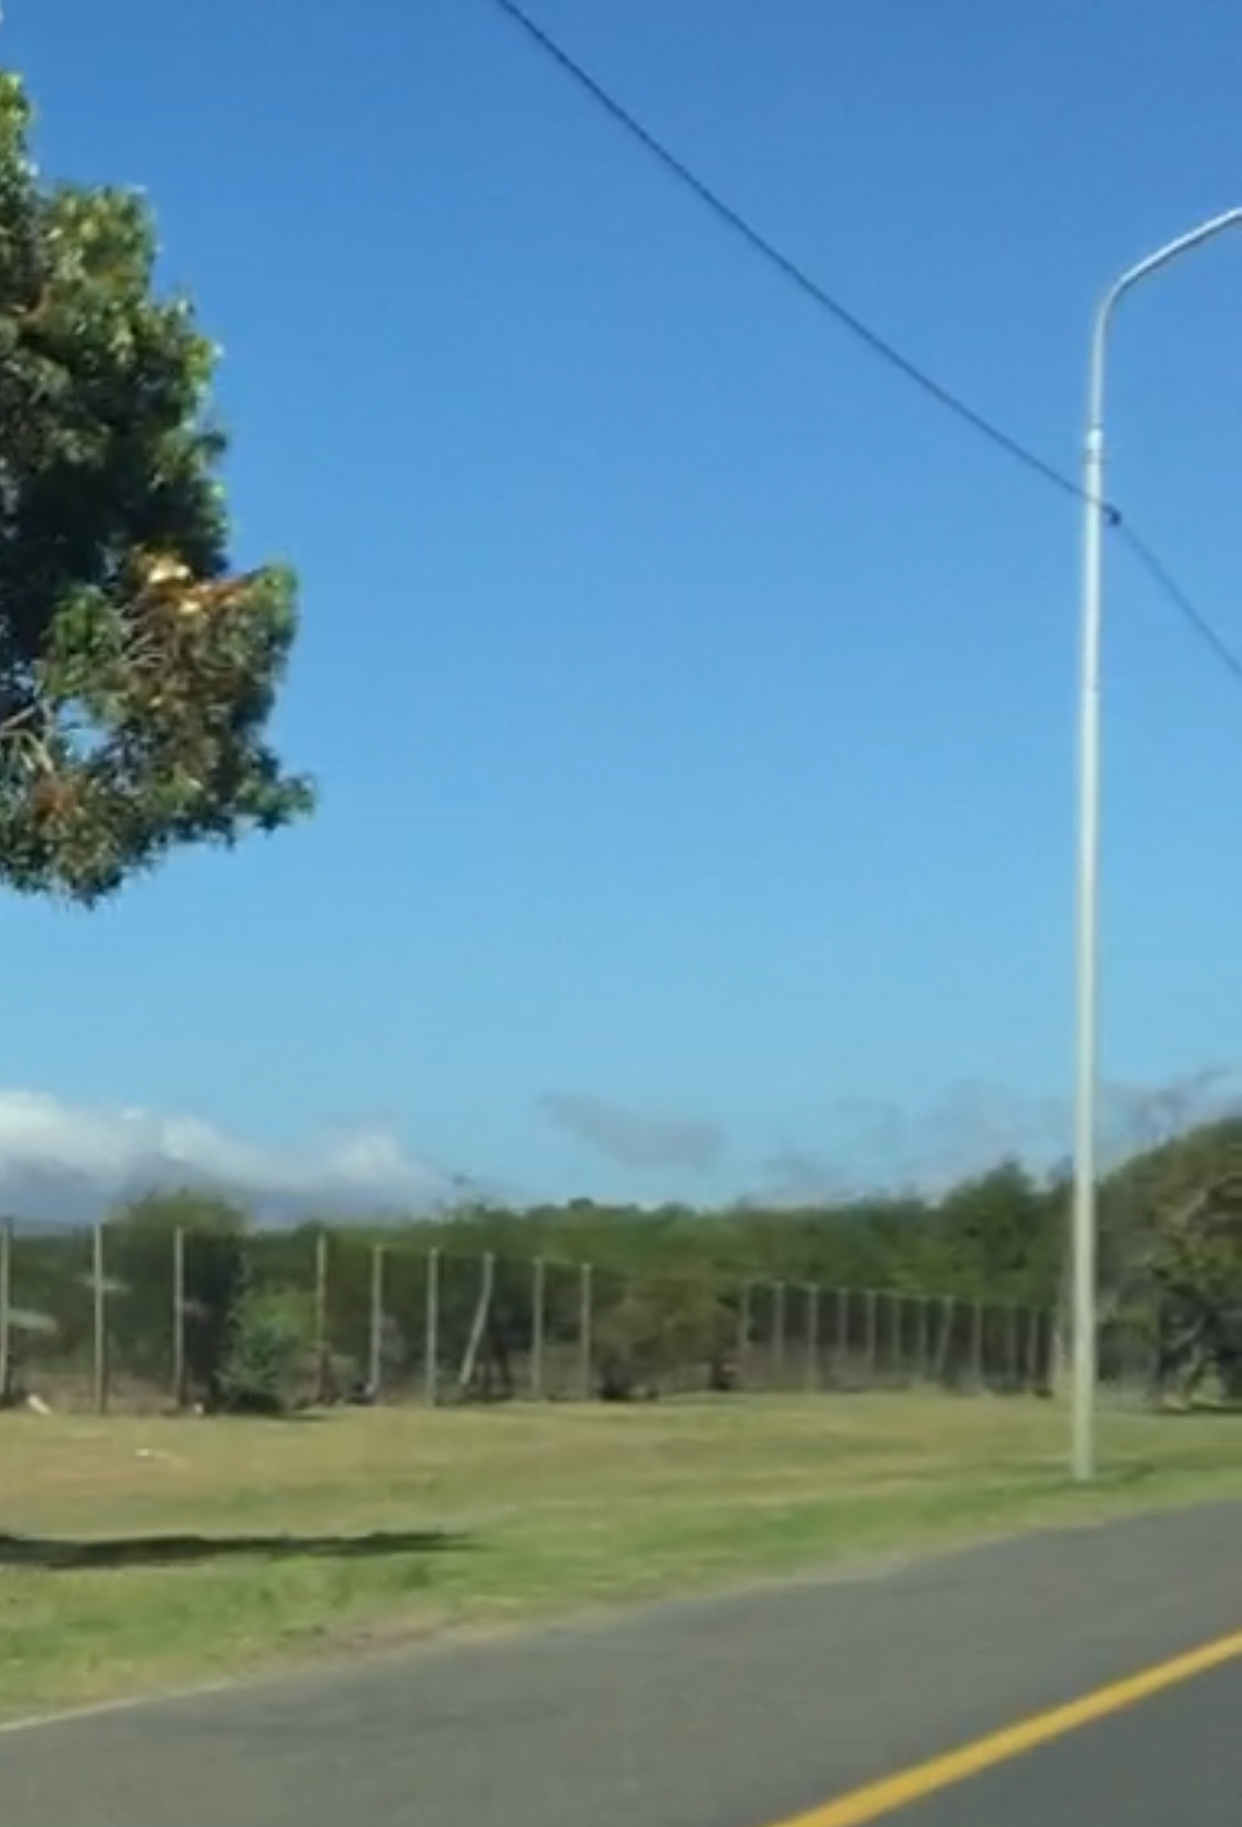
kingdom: Plantae
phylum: Tracheophyta
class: Magnoliopsida
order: Fabales
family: Fabaceae
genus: Acacia
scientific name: Acacia saligna
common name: Orange wattle
